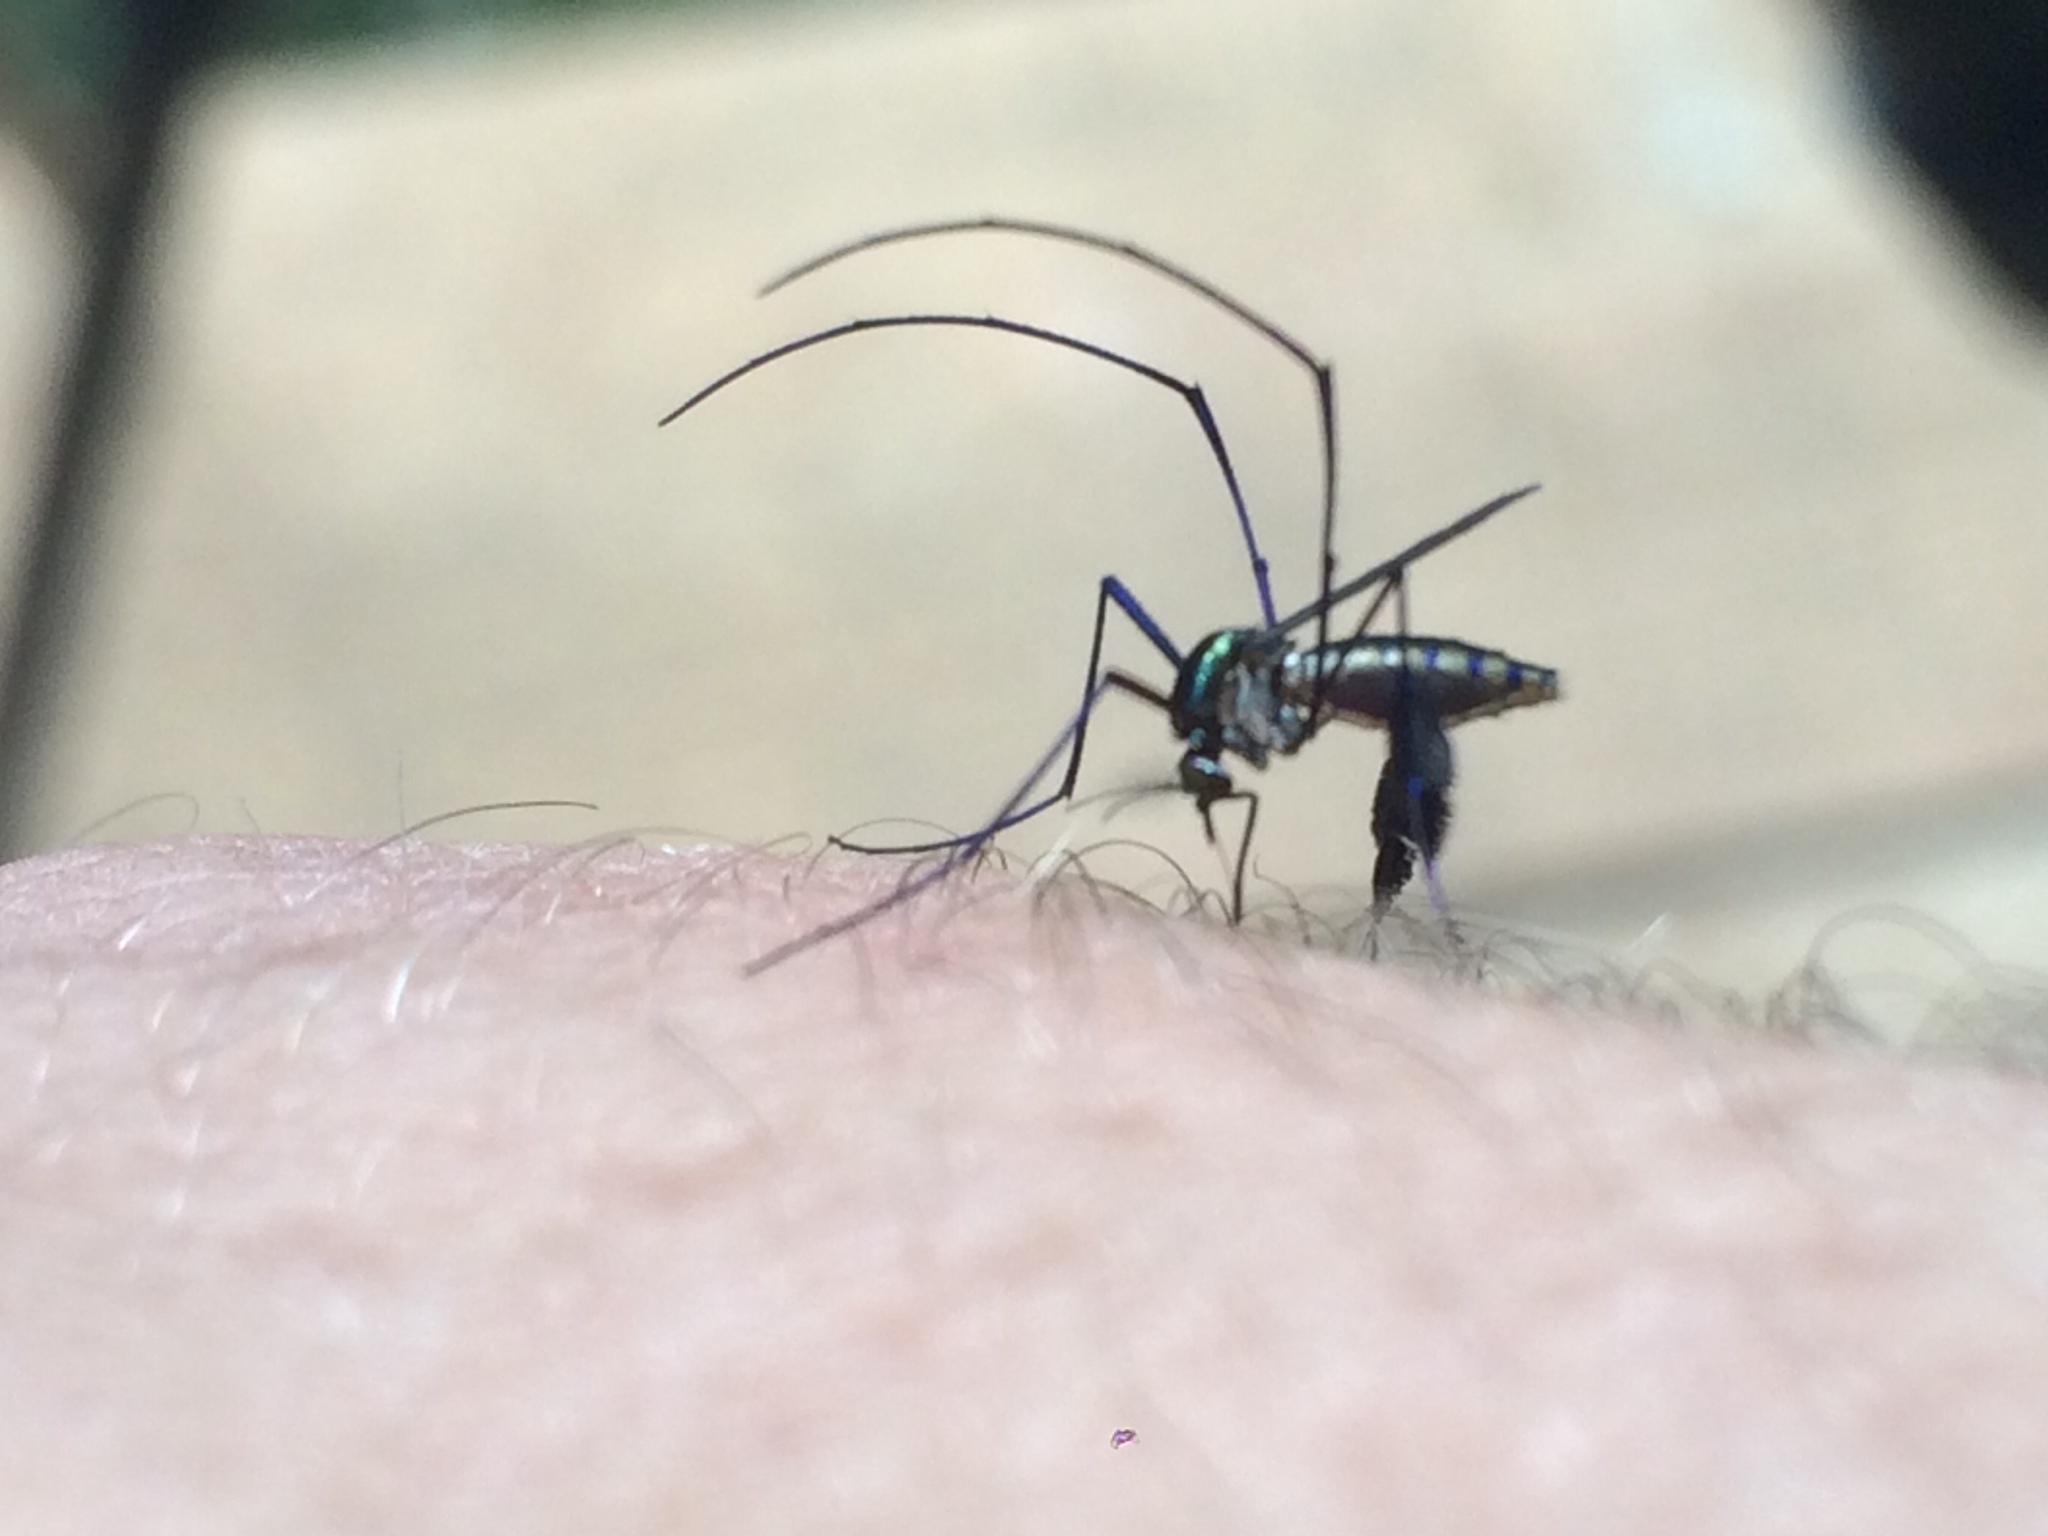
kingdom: Animalia
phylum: Arthropoda
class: Insecta
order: Diptera
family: Culicidae
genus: Sabethes
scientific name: Sabethes albiprivus
